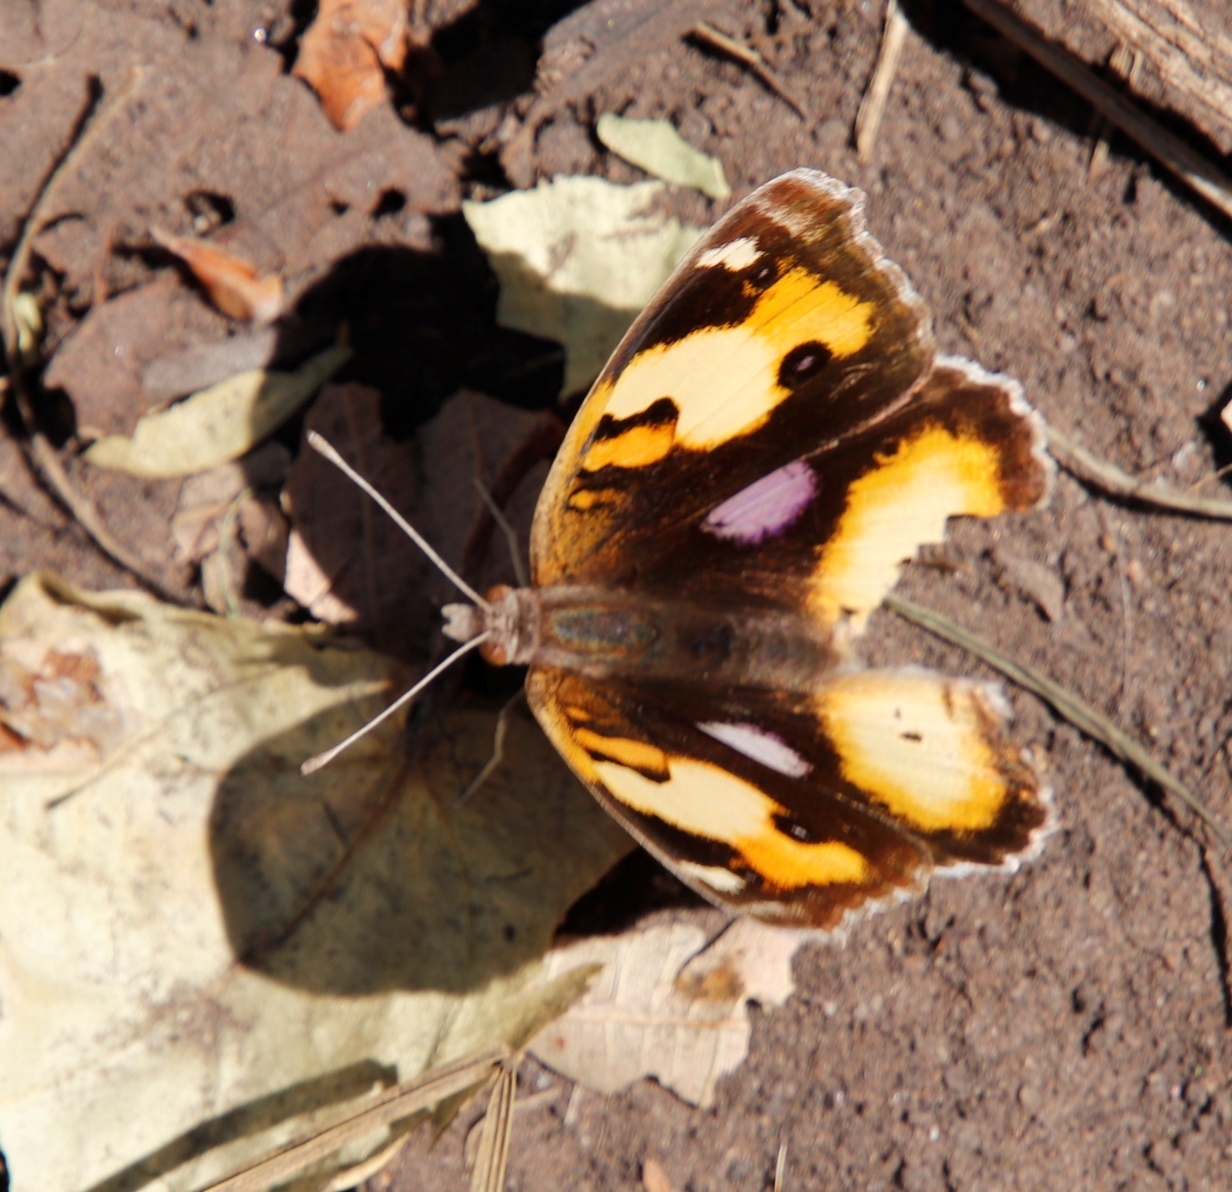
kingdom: Animalia
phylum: Arthropoda
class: Insecta
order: Lepidoptera
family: Nymphalidae
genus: Junonia
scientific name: Junonia hierta
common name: Yellow pansy
